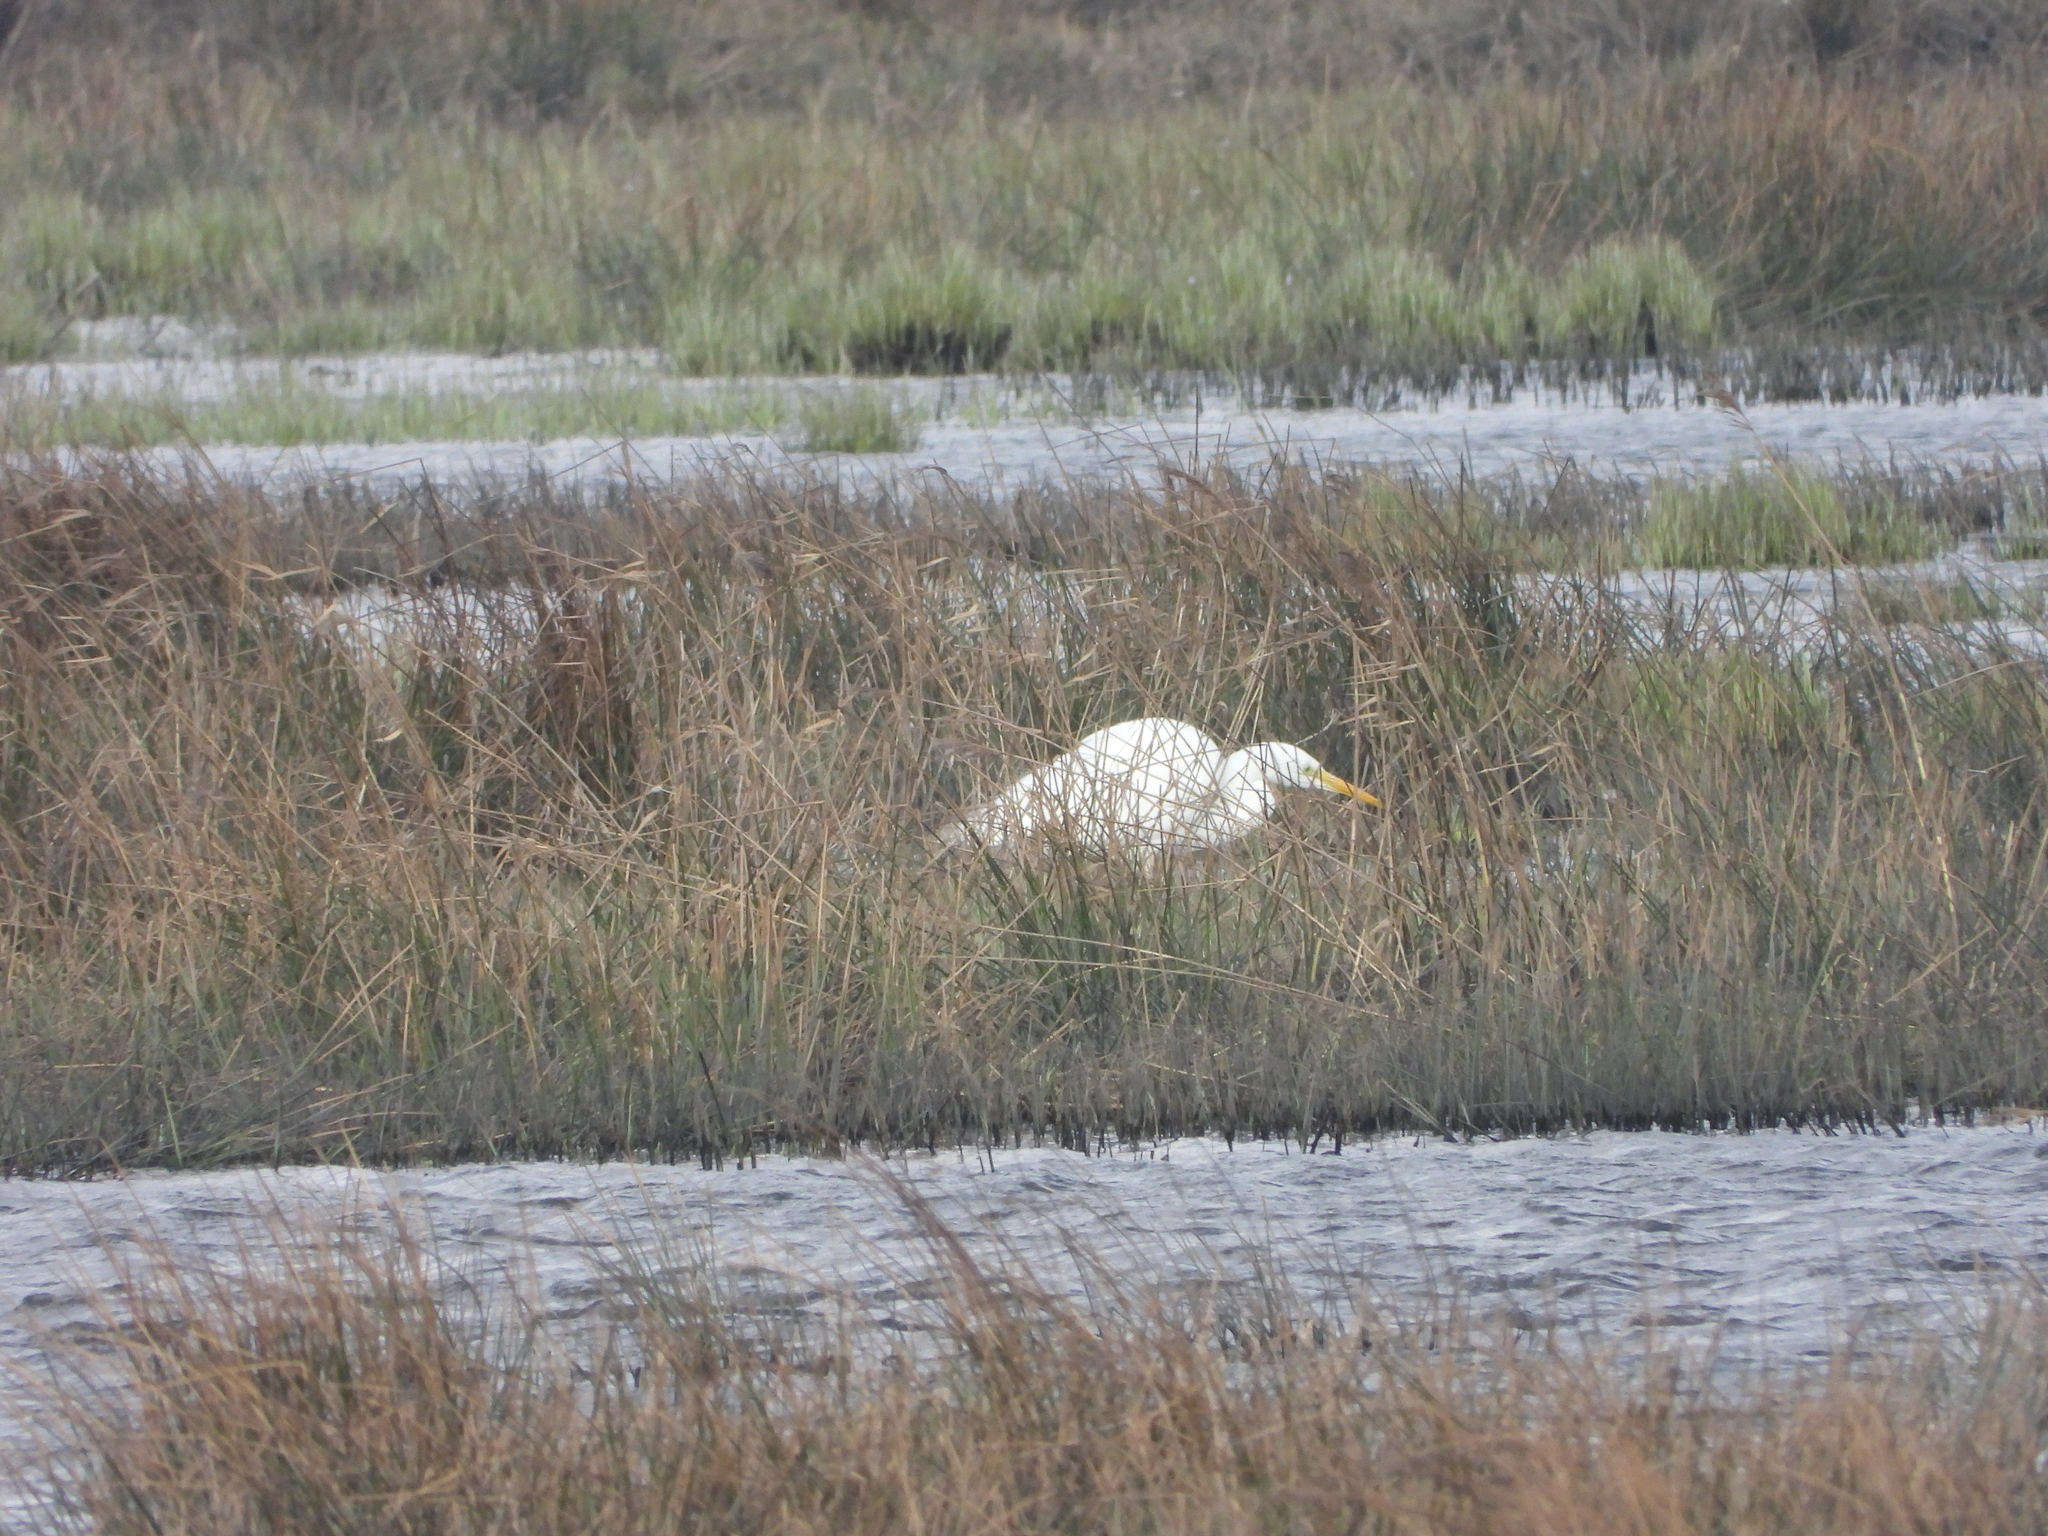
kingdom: Animalia
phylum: Chordata
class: Aves
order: Pelecaniformes
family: Ardeidae
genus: Ardea
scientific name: Ardea alba
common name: Great egret
